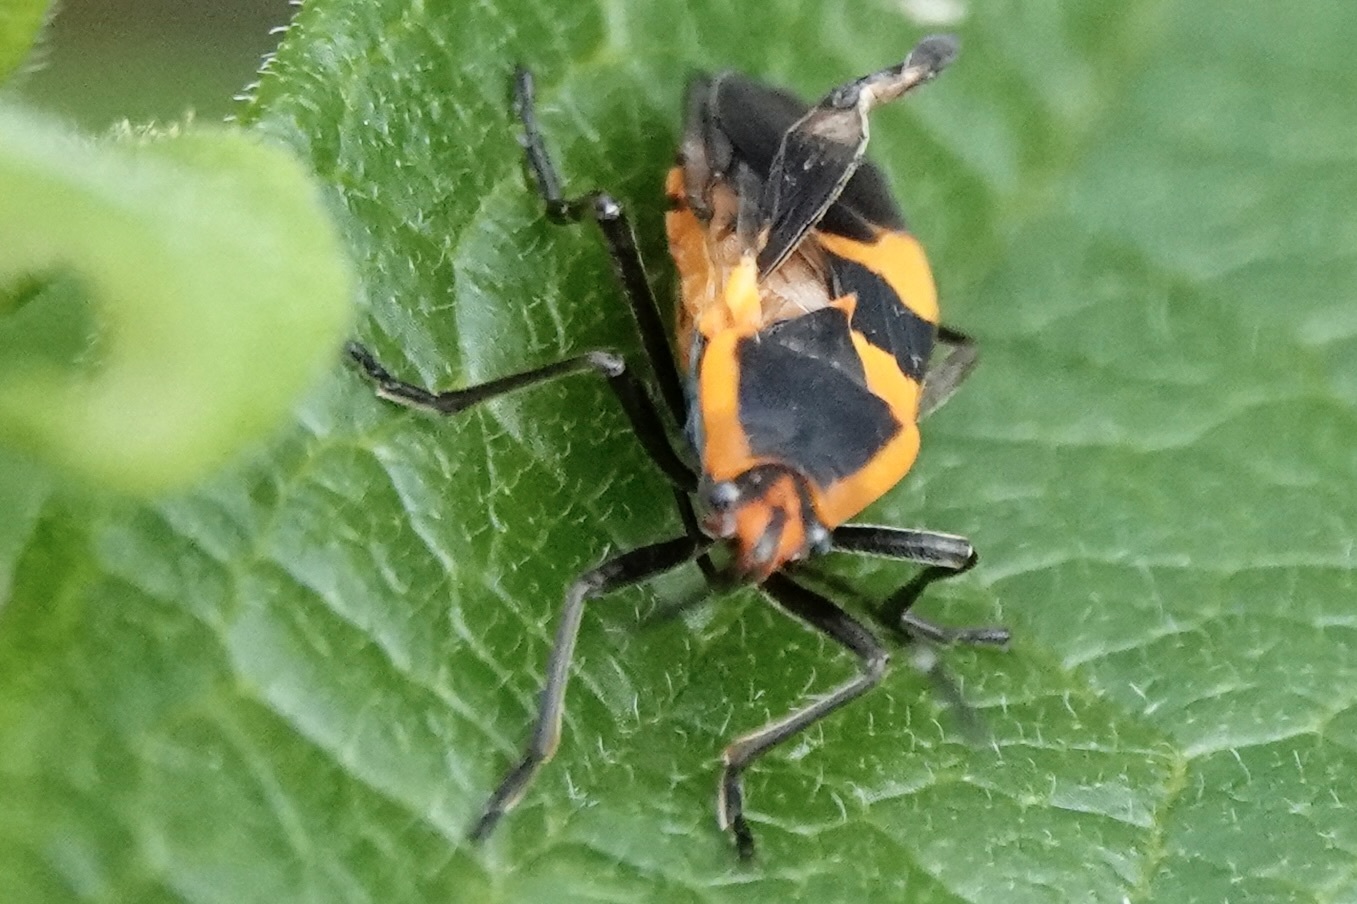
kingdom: Animalia
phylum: Arthropoda
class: Insecta
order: Hemiptera
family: Lygaeidae
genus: Oncopeltus
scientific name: Oncopeltus fasciatus
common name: Large milkweed bug
